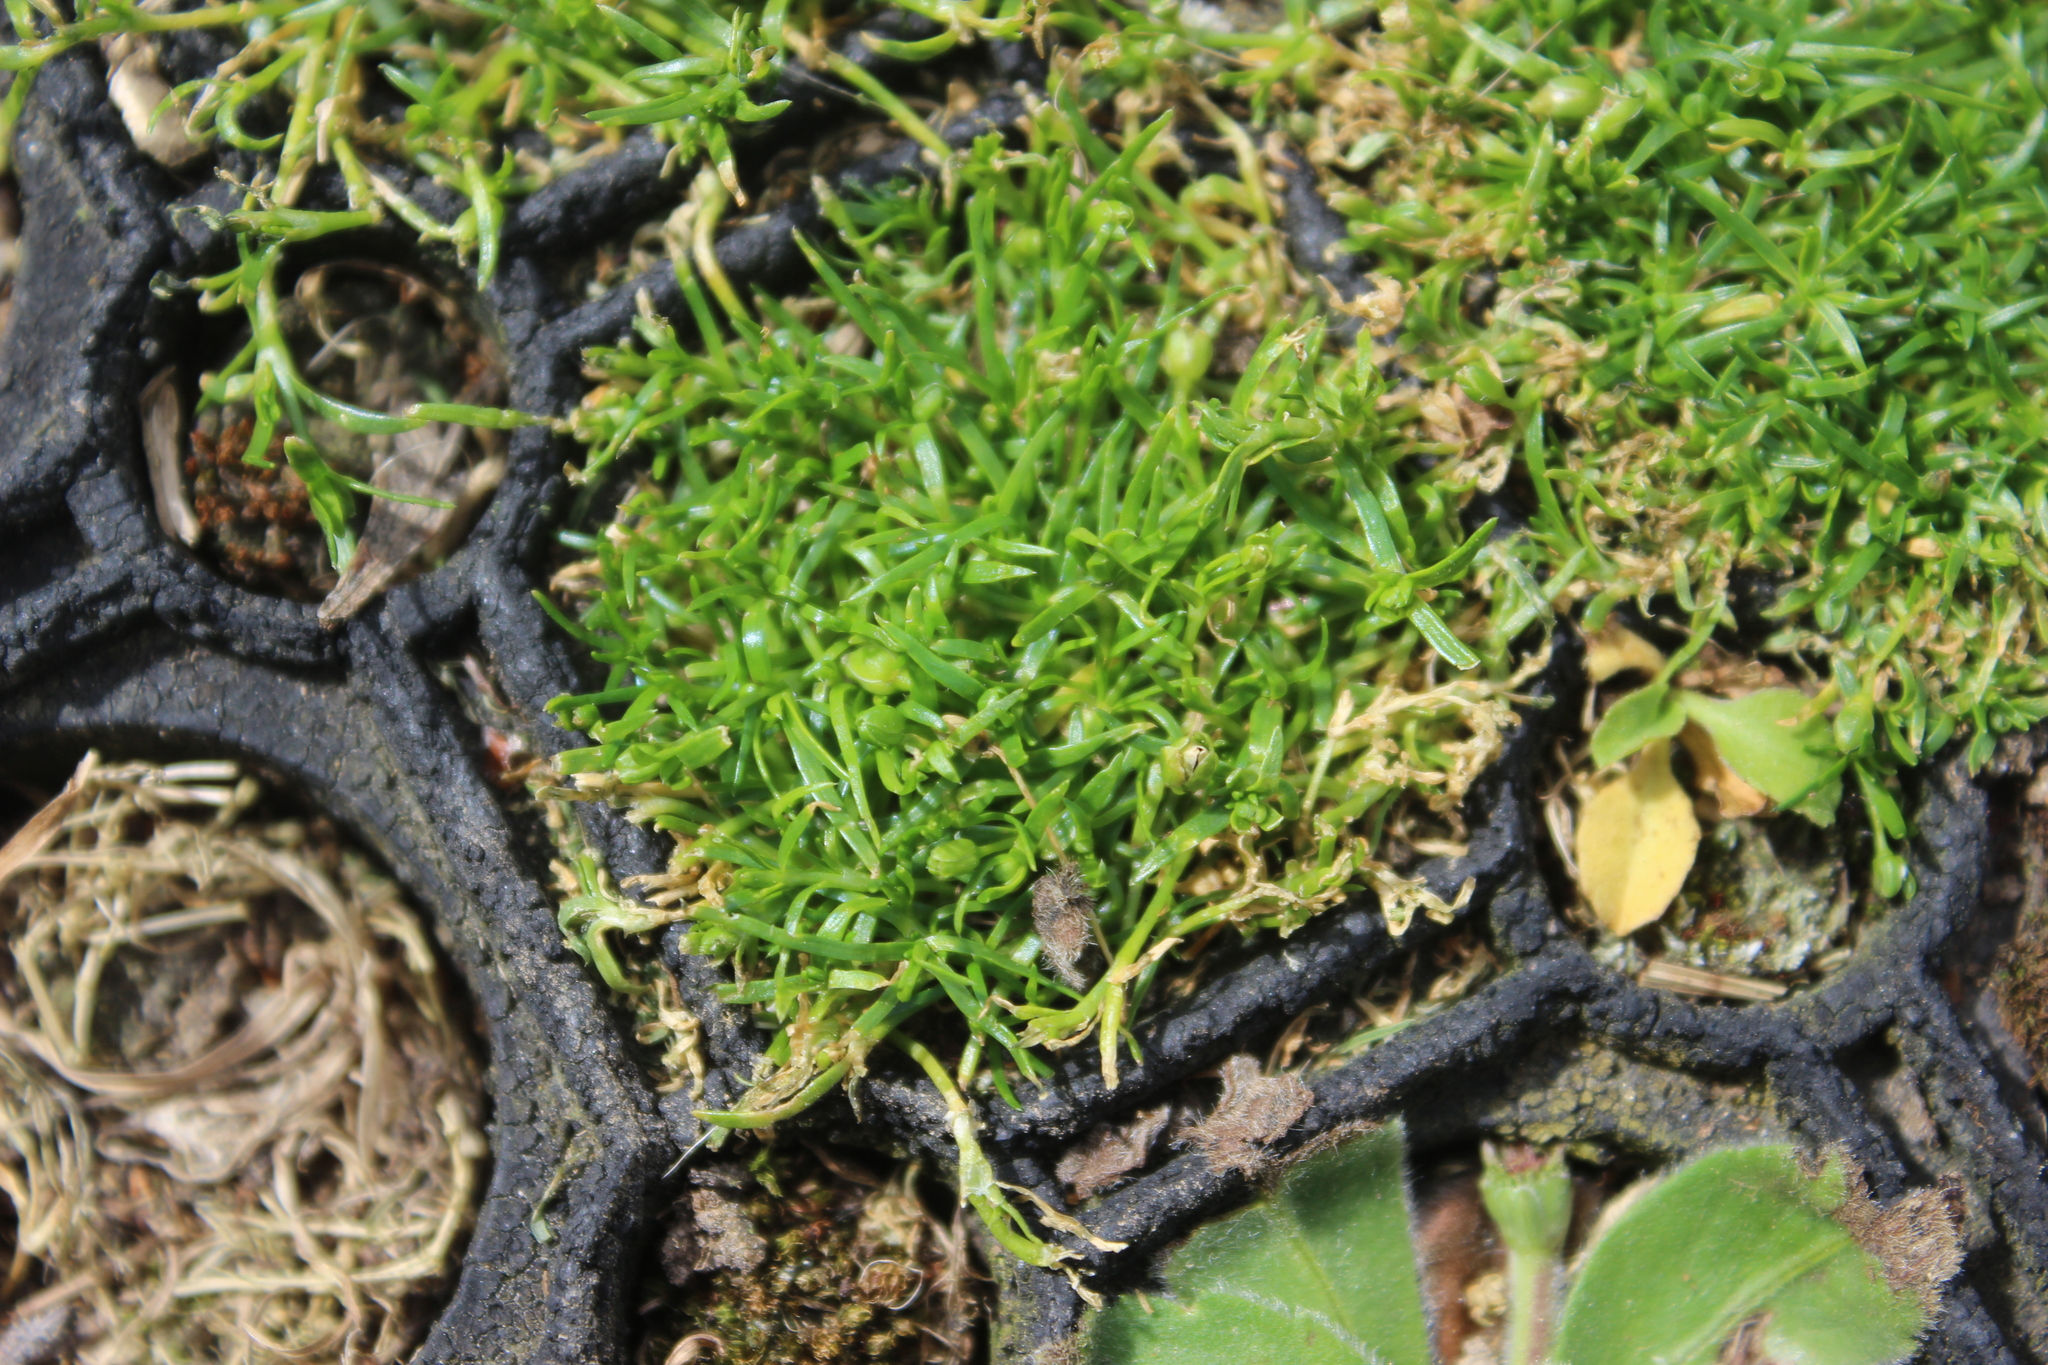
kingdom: Plantae
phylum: Tracheophyta
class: Magnoliopsida
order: Caryophyllales
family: Caryophyllaceae
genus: Sagina
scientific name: Sagina procumbens
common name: Procumbent pearlwort
